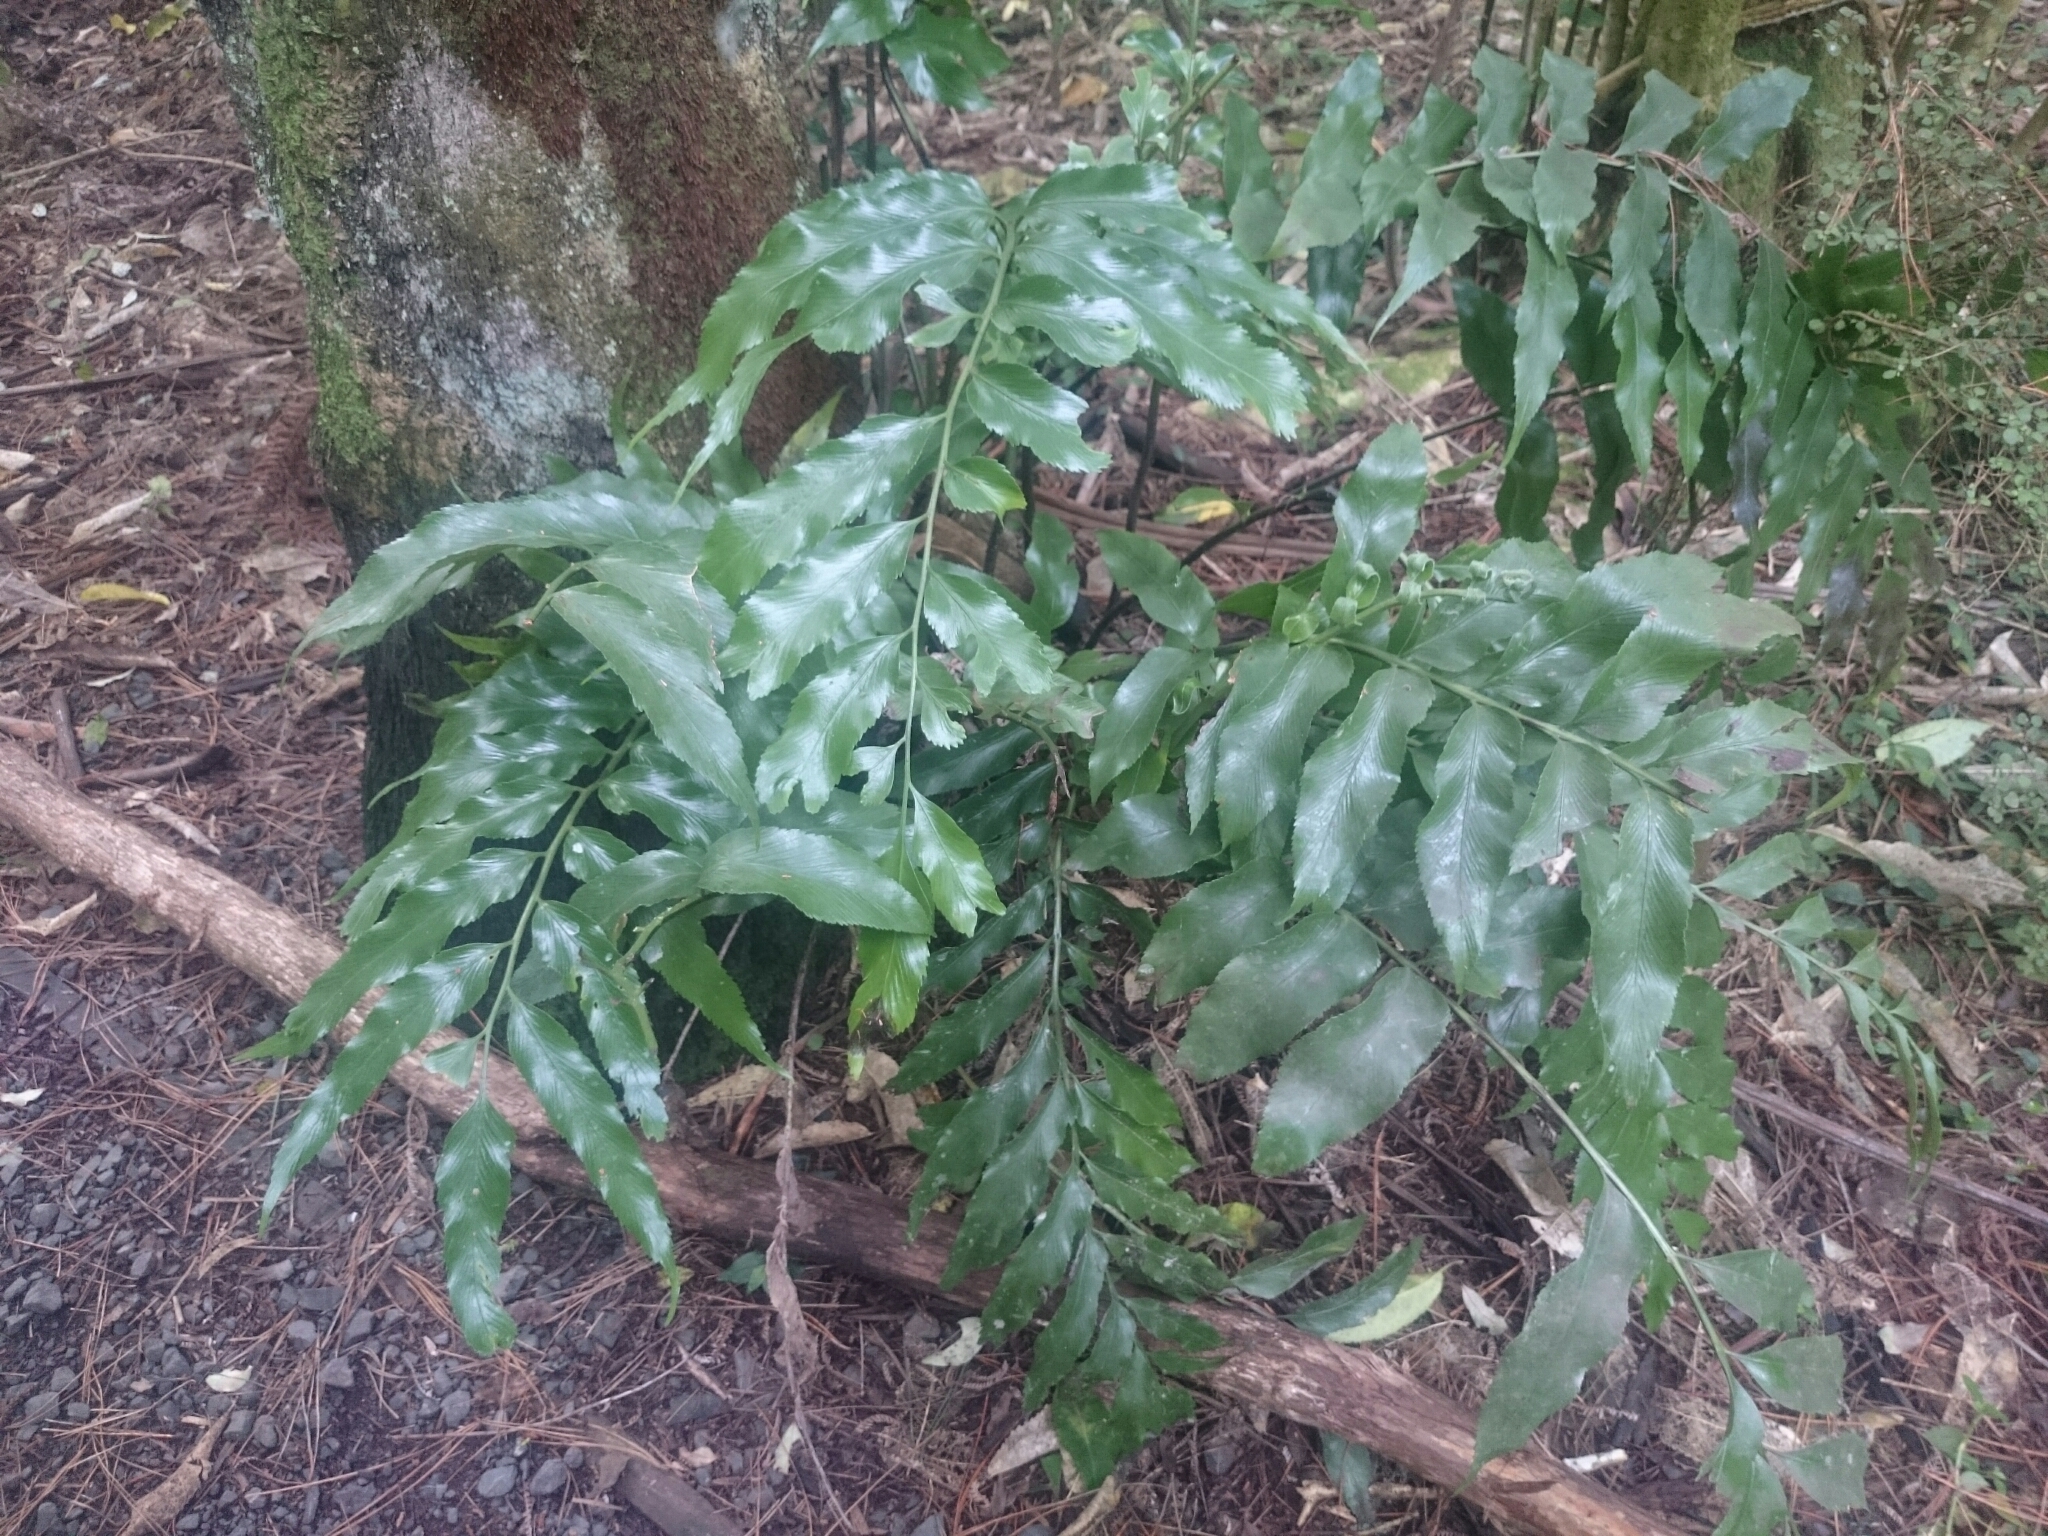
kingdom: Plantae
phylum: Tracheophyta
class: Polypodiopsida
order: Polypodiales
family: Aspleniaceae
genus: Asplenium
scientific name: Asplenium oblongifolium
